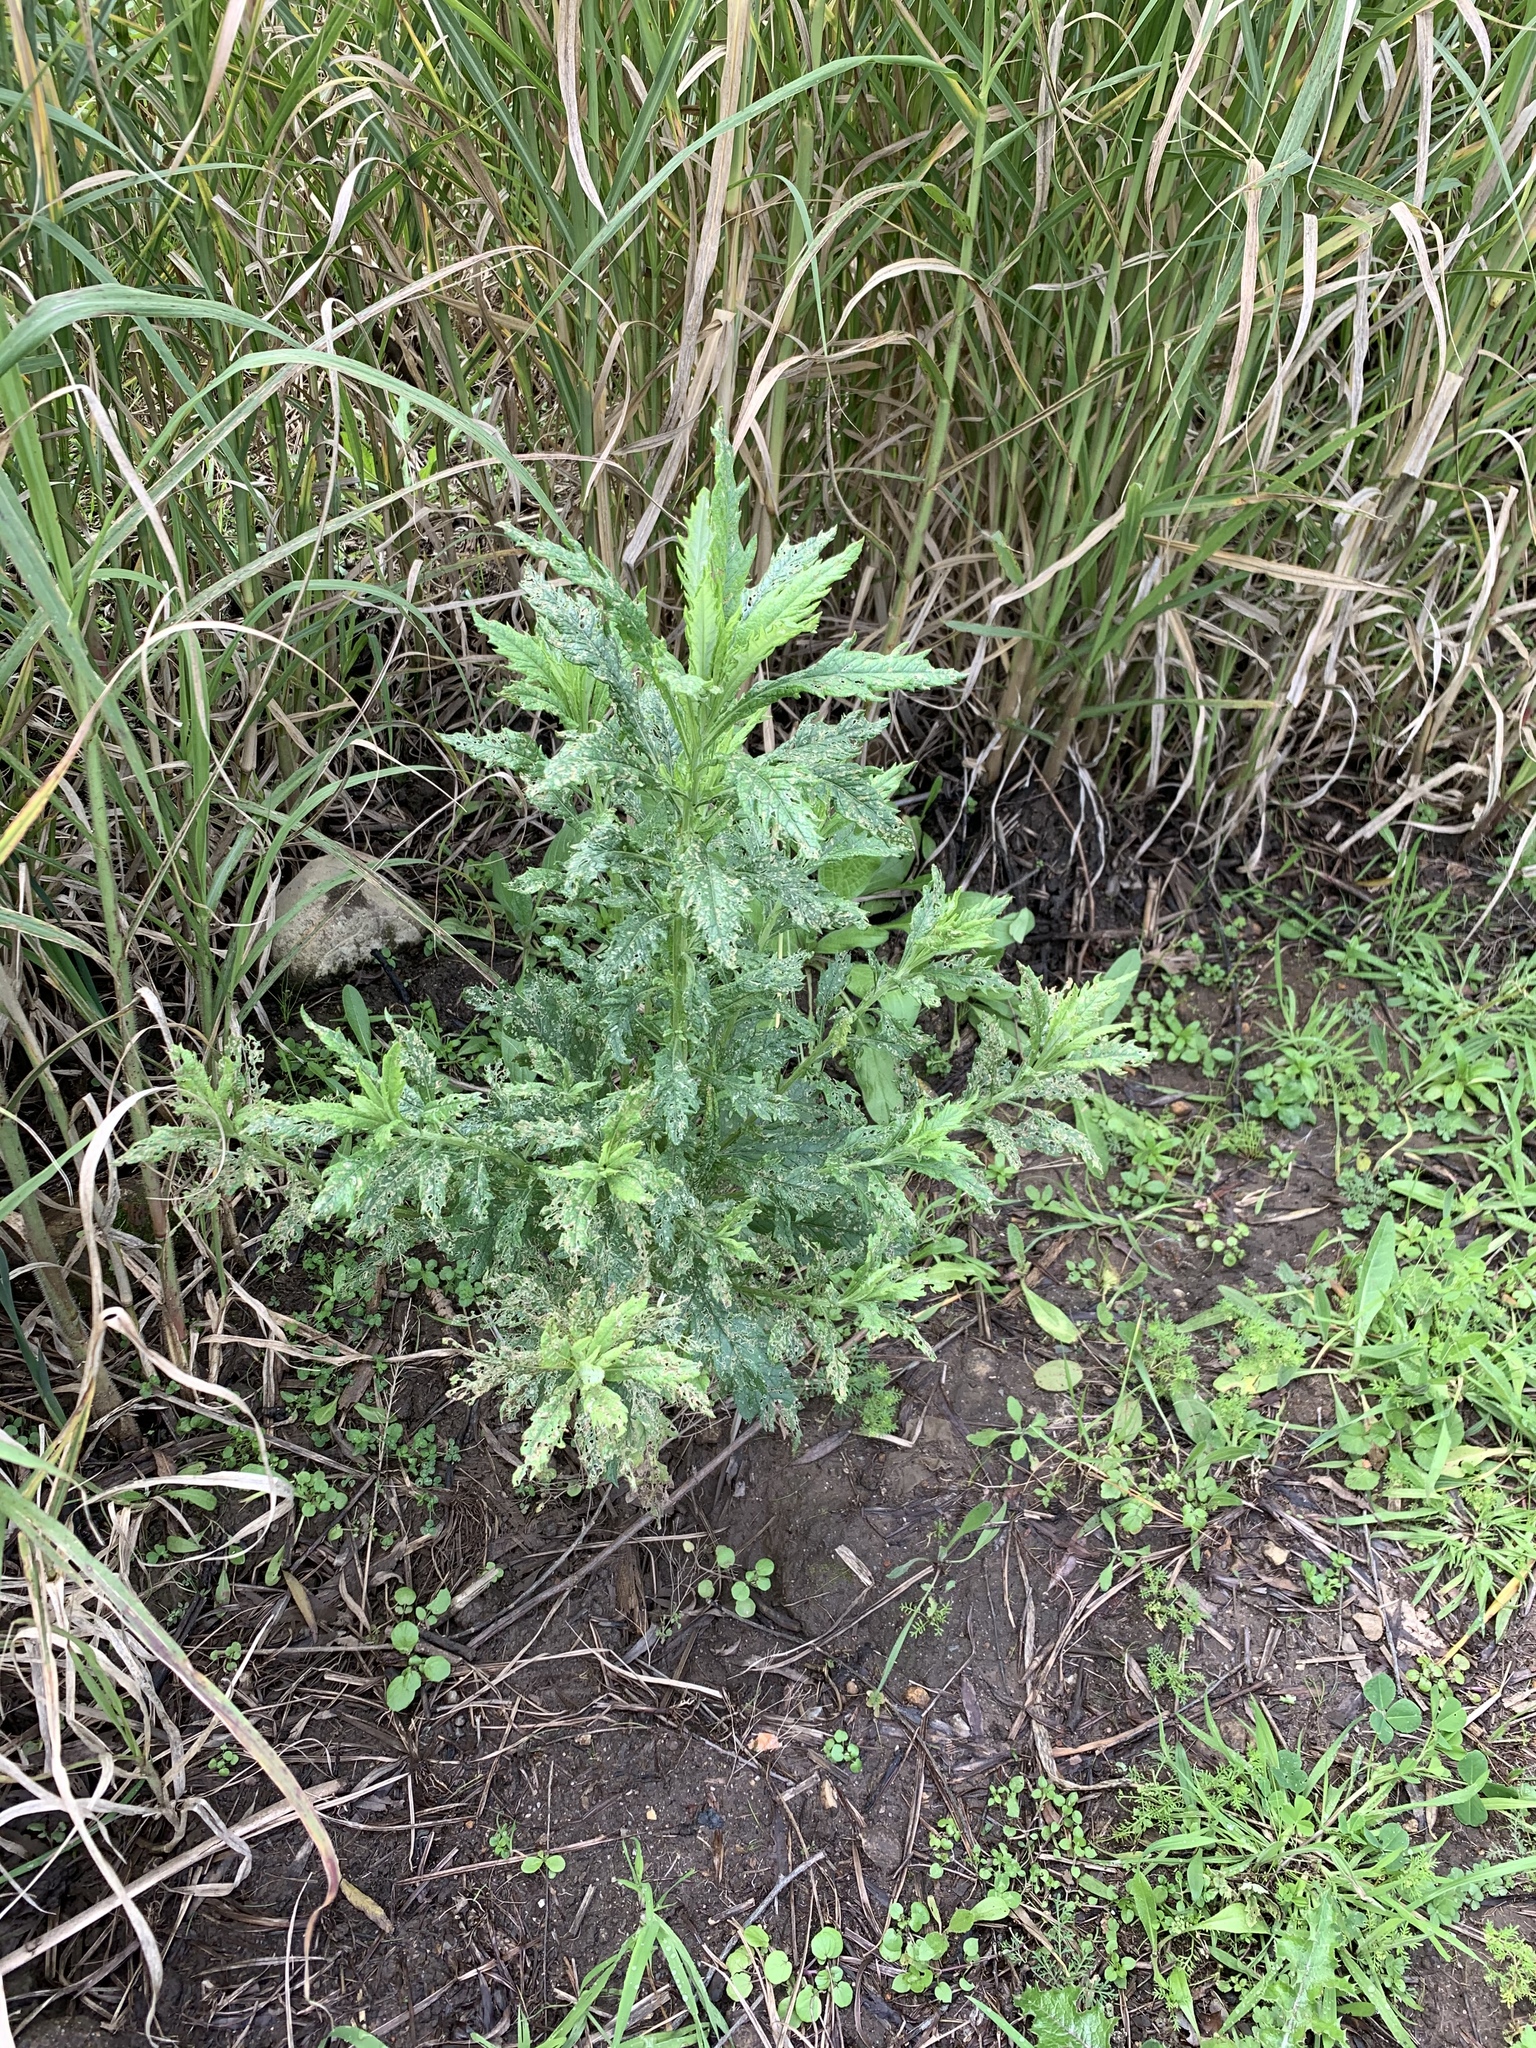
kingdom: Plantae
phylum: Tracheophyta
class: Magnoliopsida
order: Asterales
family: Asteraceae
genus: Senecio
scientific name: Senecio pterophorus
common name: Shoddy ragwort
